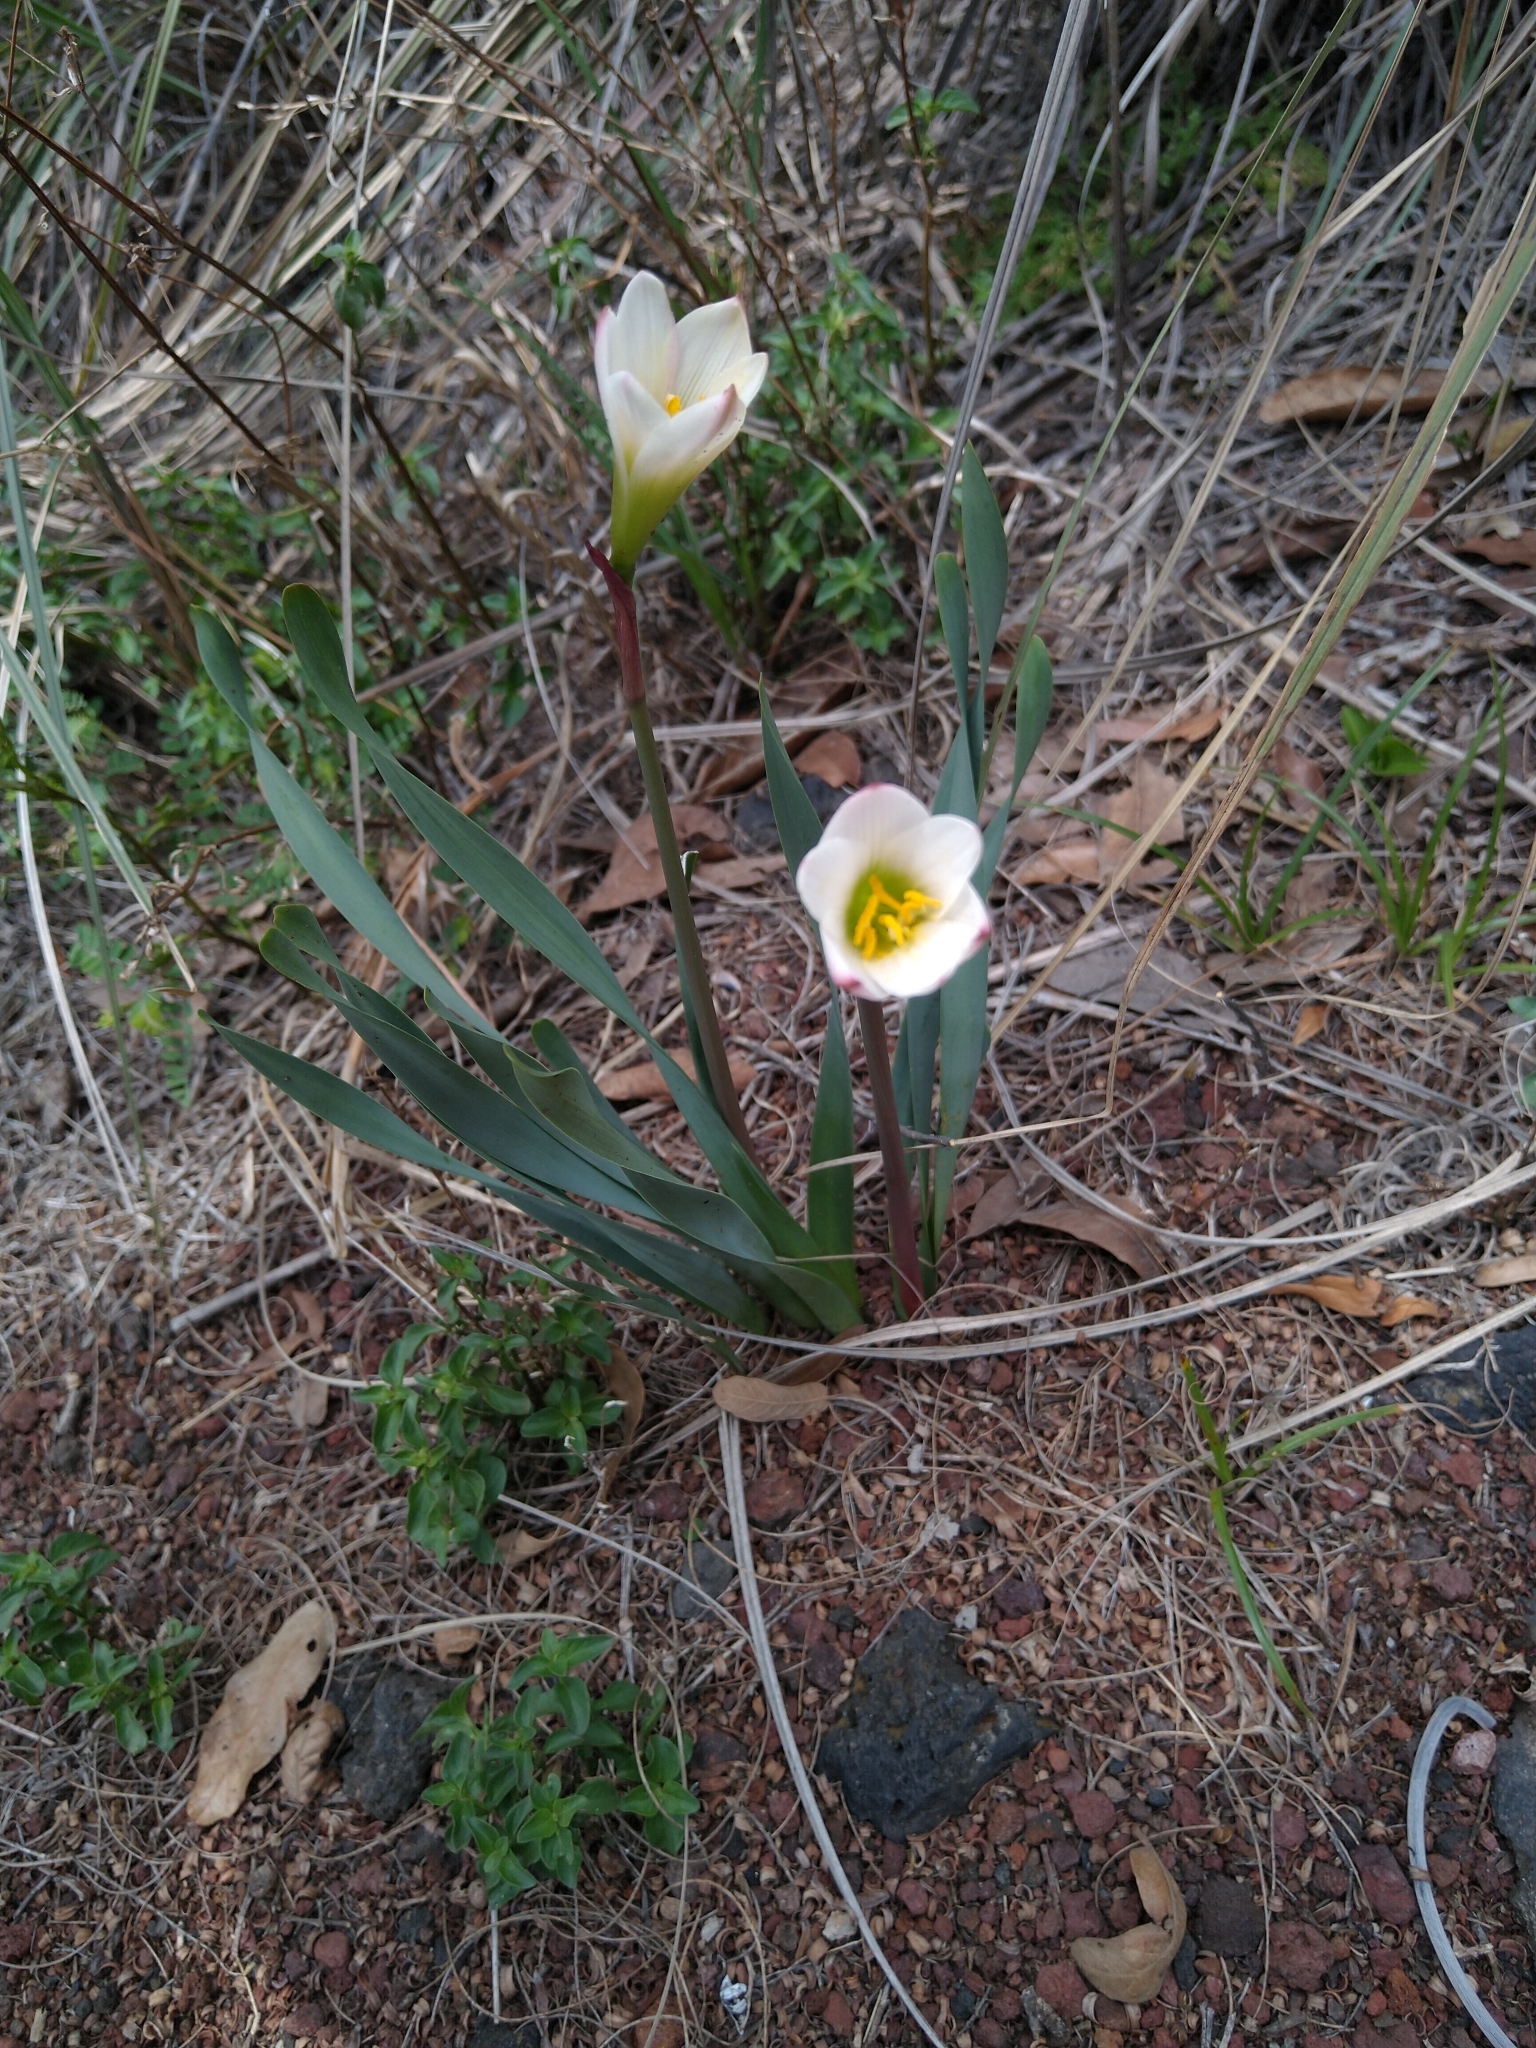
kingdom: Plantae
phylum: Tracheophyta
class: Liliopsida
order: Asparagales
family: Amaryllidaceae
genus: Zephyranthes
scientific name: Zephyranthes alba
